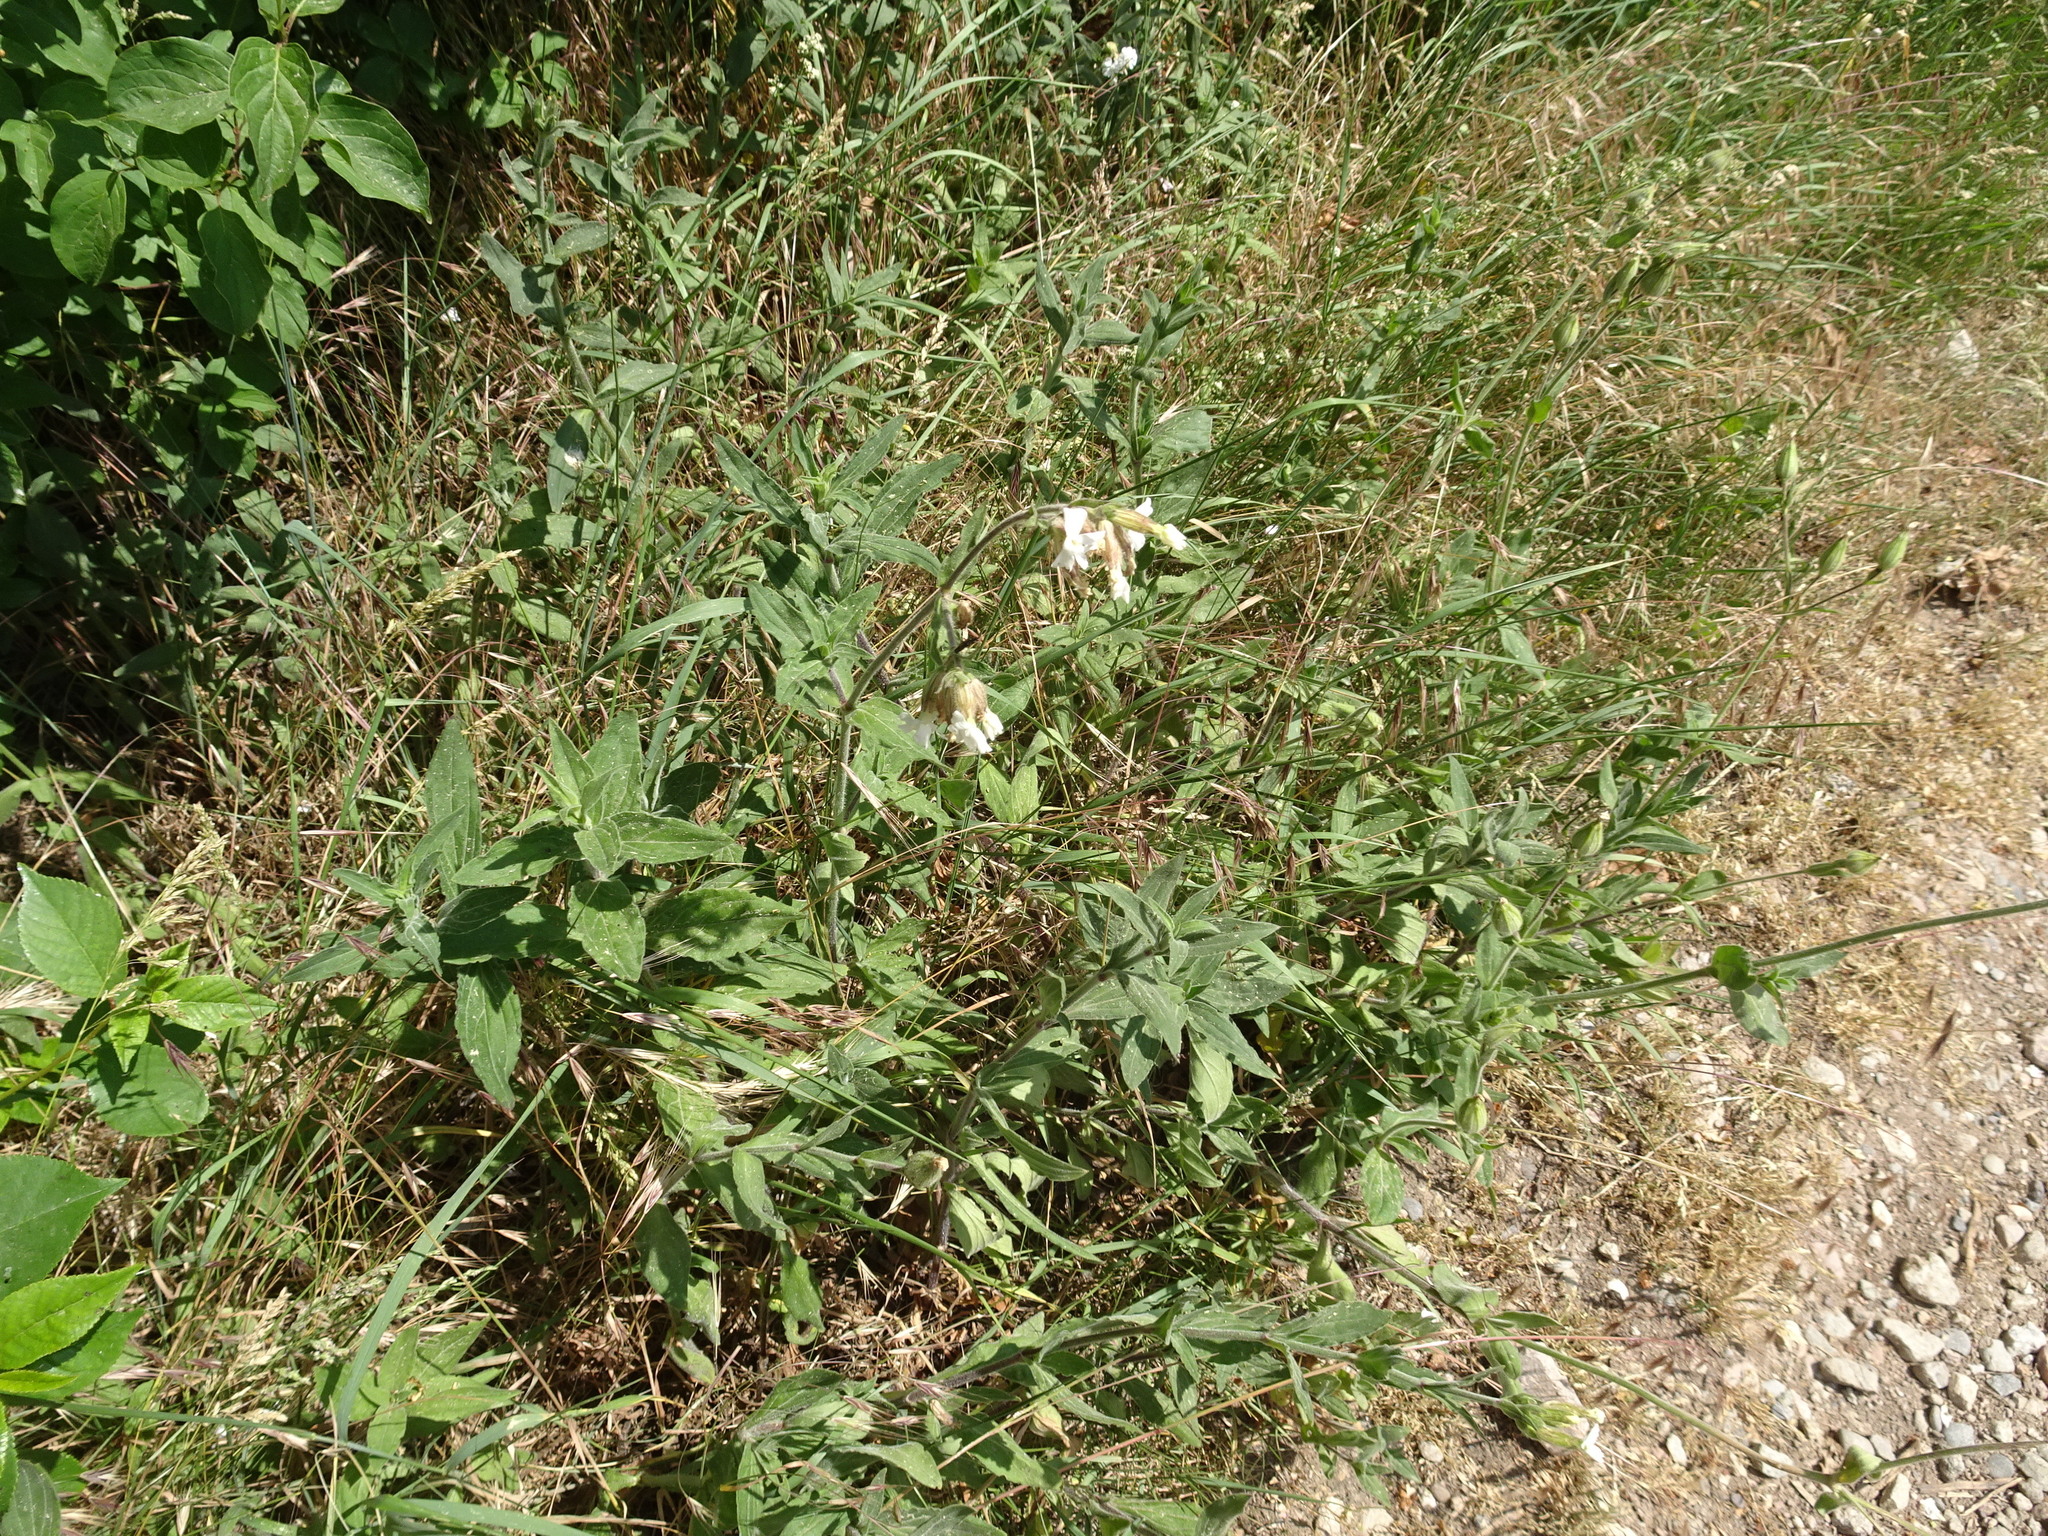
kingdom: Plantae
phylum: Tracheophyta
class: Magnoliopsida
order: Caryophyllales
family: Caryophyllaceae
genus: Silene
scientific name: Silene latifolia
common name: White campion
